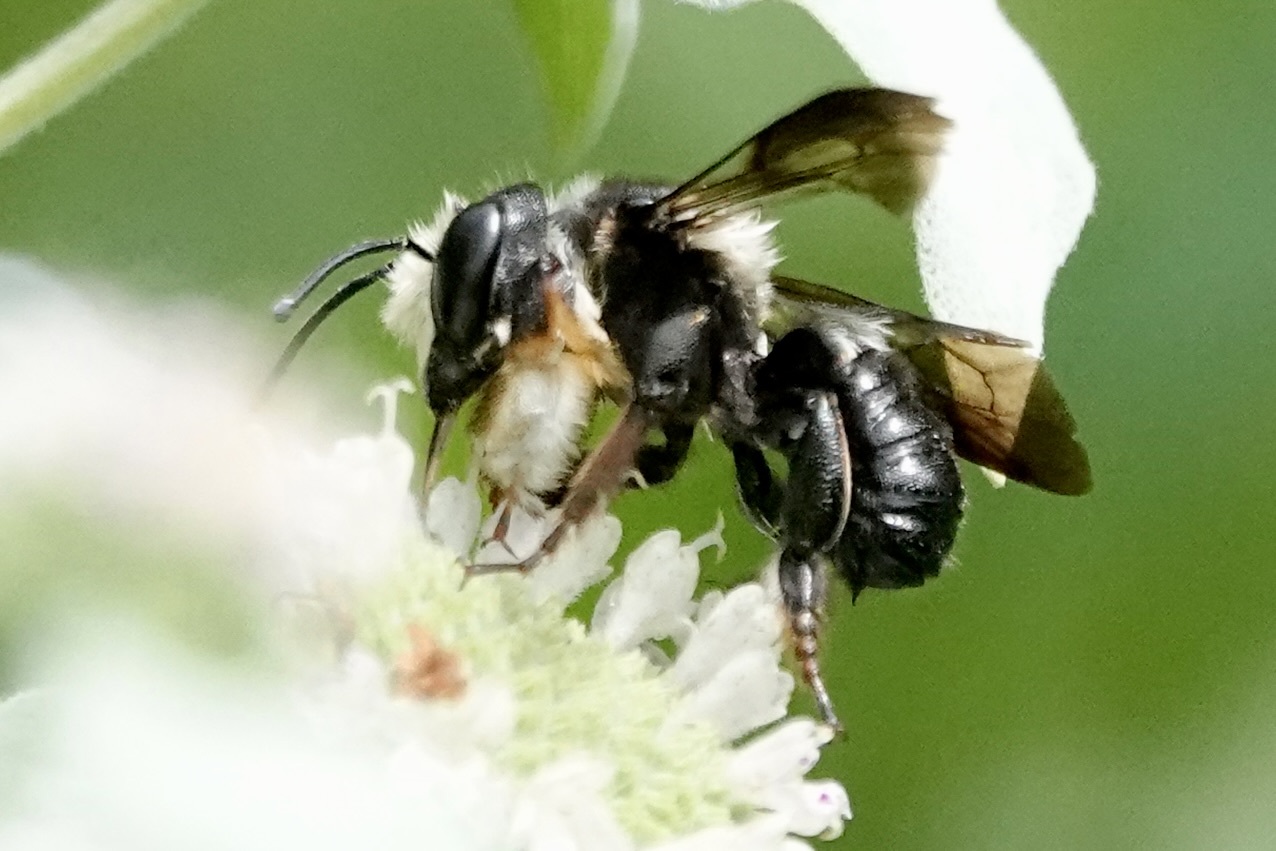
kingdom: Animalia
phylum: Arthropoda
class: Insecta
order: Hymenoptera
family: Megachilidae
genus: Megachile
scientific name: Megachile xylocopoides
